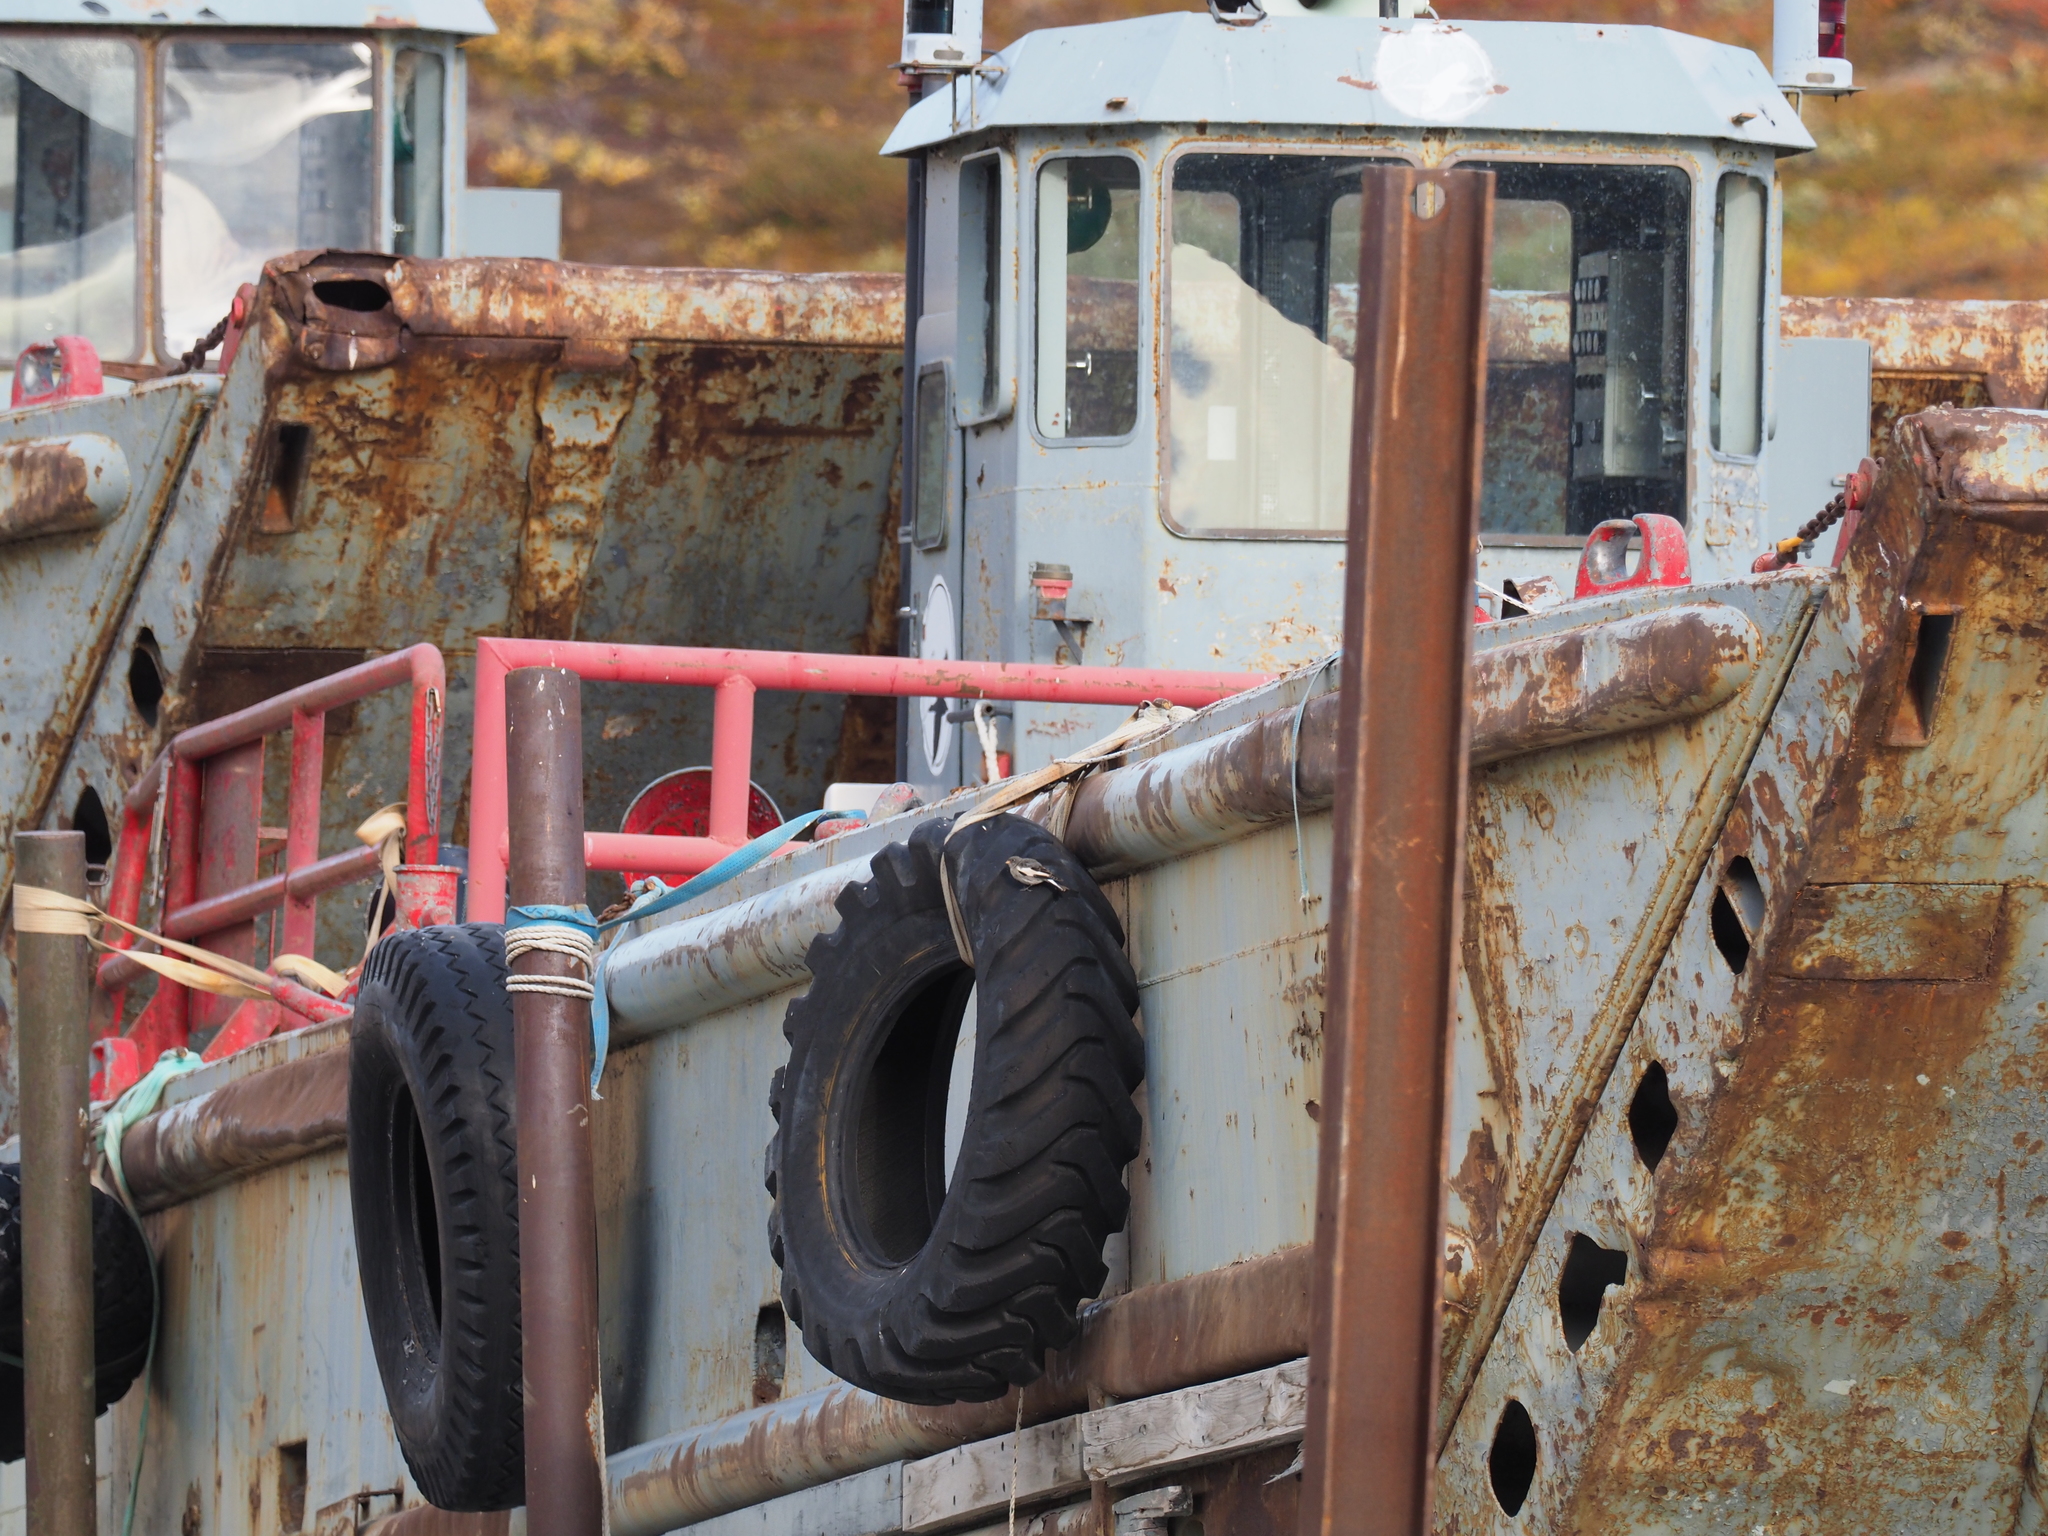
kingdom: Animalia
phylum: Chordata
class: Aves
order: Passeriformes
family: Calcariidae
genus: Plectrophenax
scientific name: Plectrophenax nivalis
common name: Snow bunting
